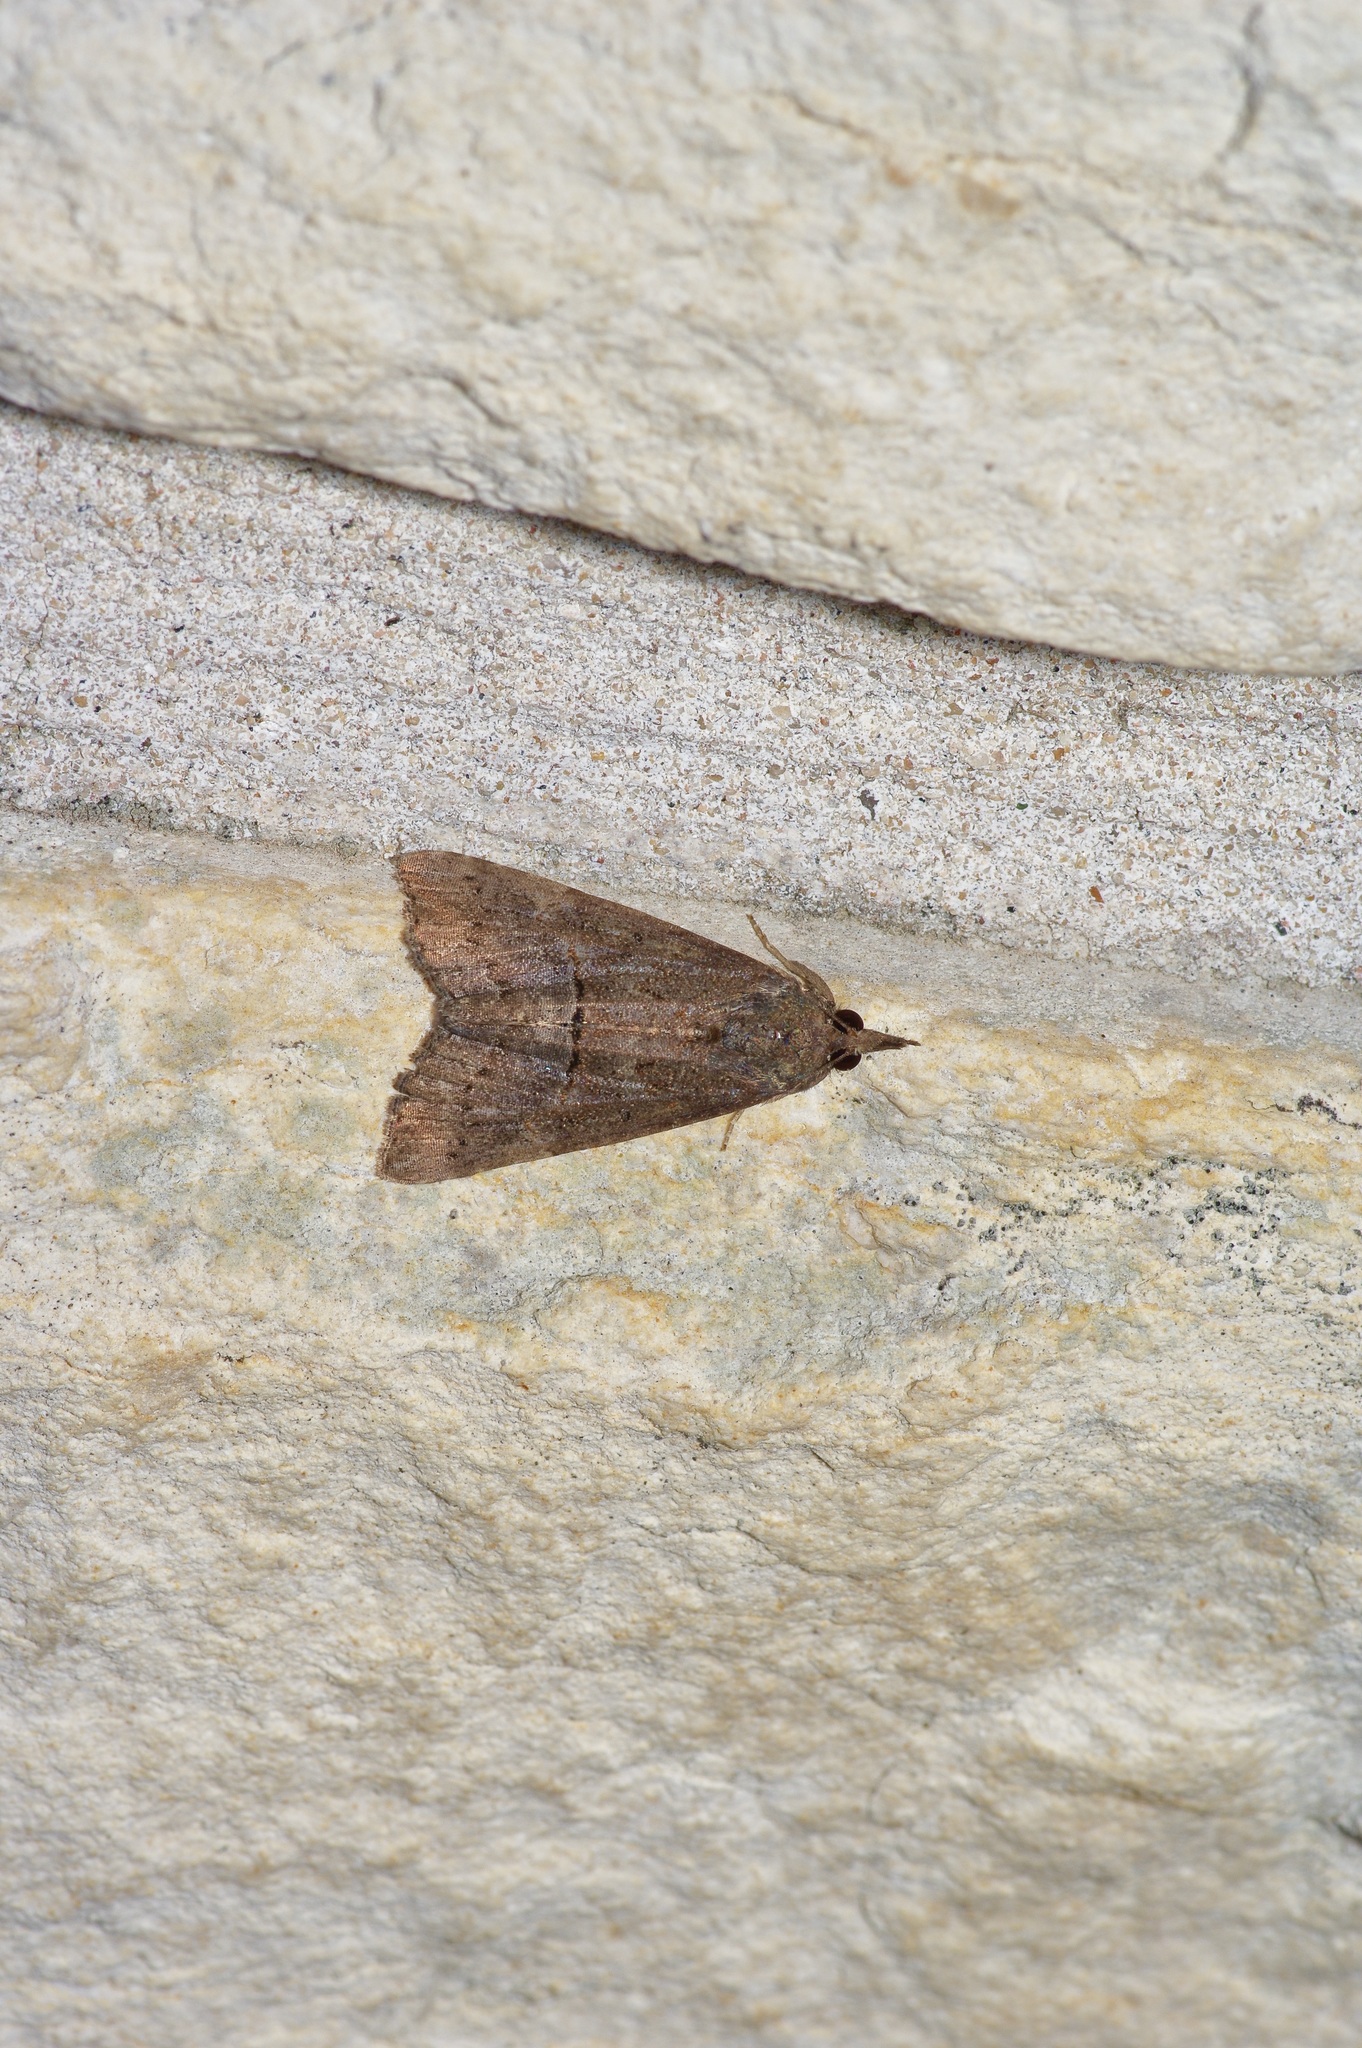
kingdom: Animalia
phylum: Arthropoda
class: Insecta
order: Lepidoptera
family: Erebidae
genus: Hypena
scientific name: Hypena scabra
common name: Green cloverworm
